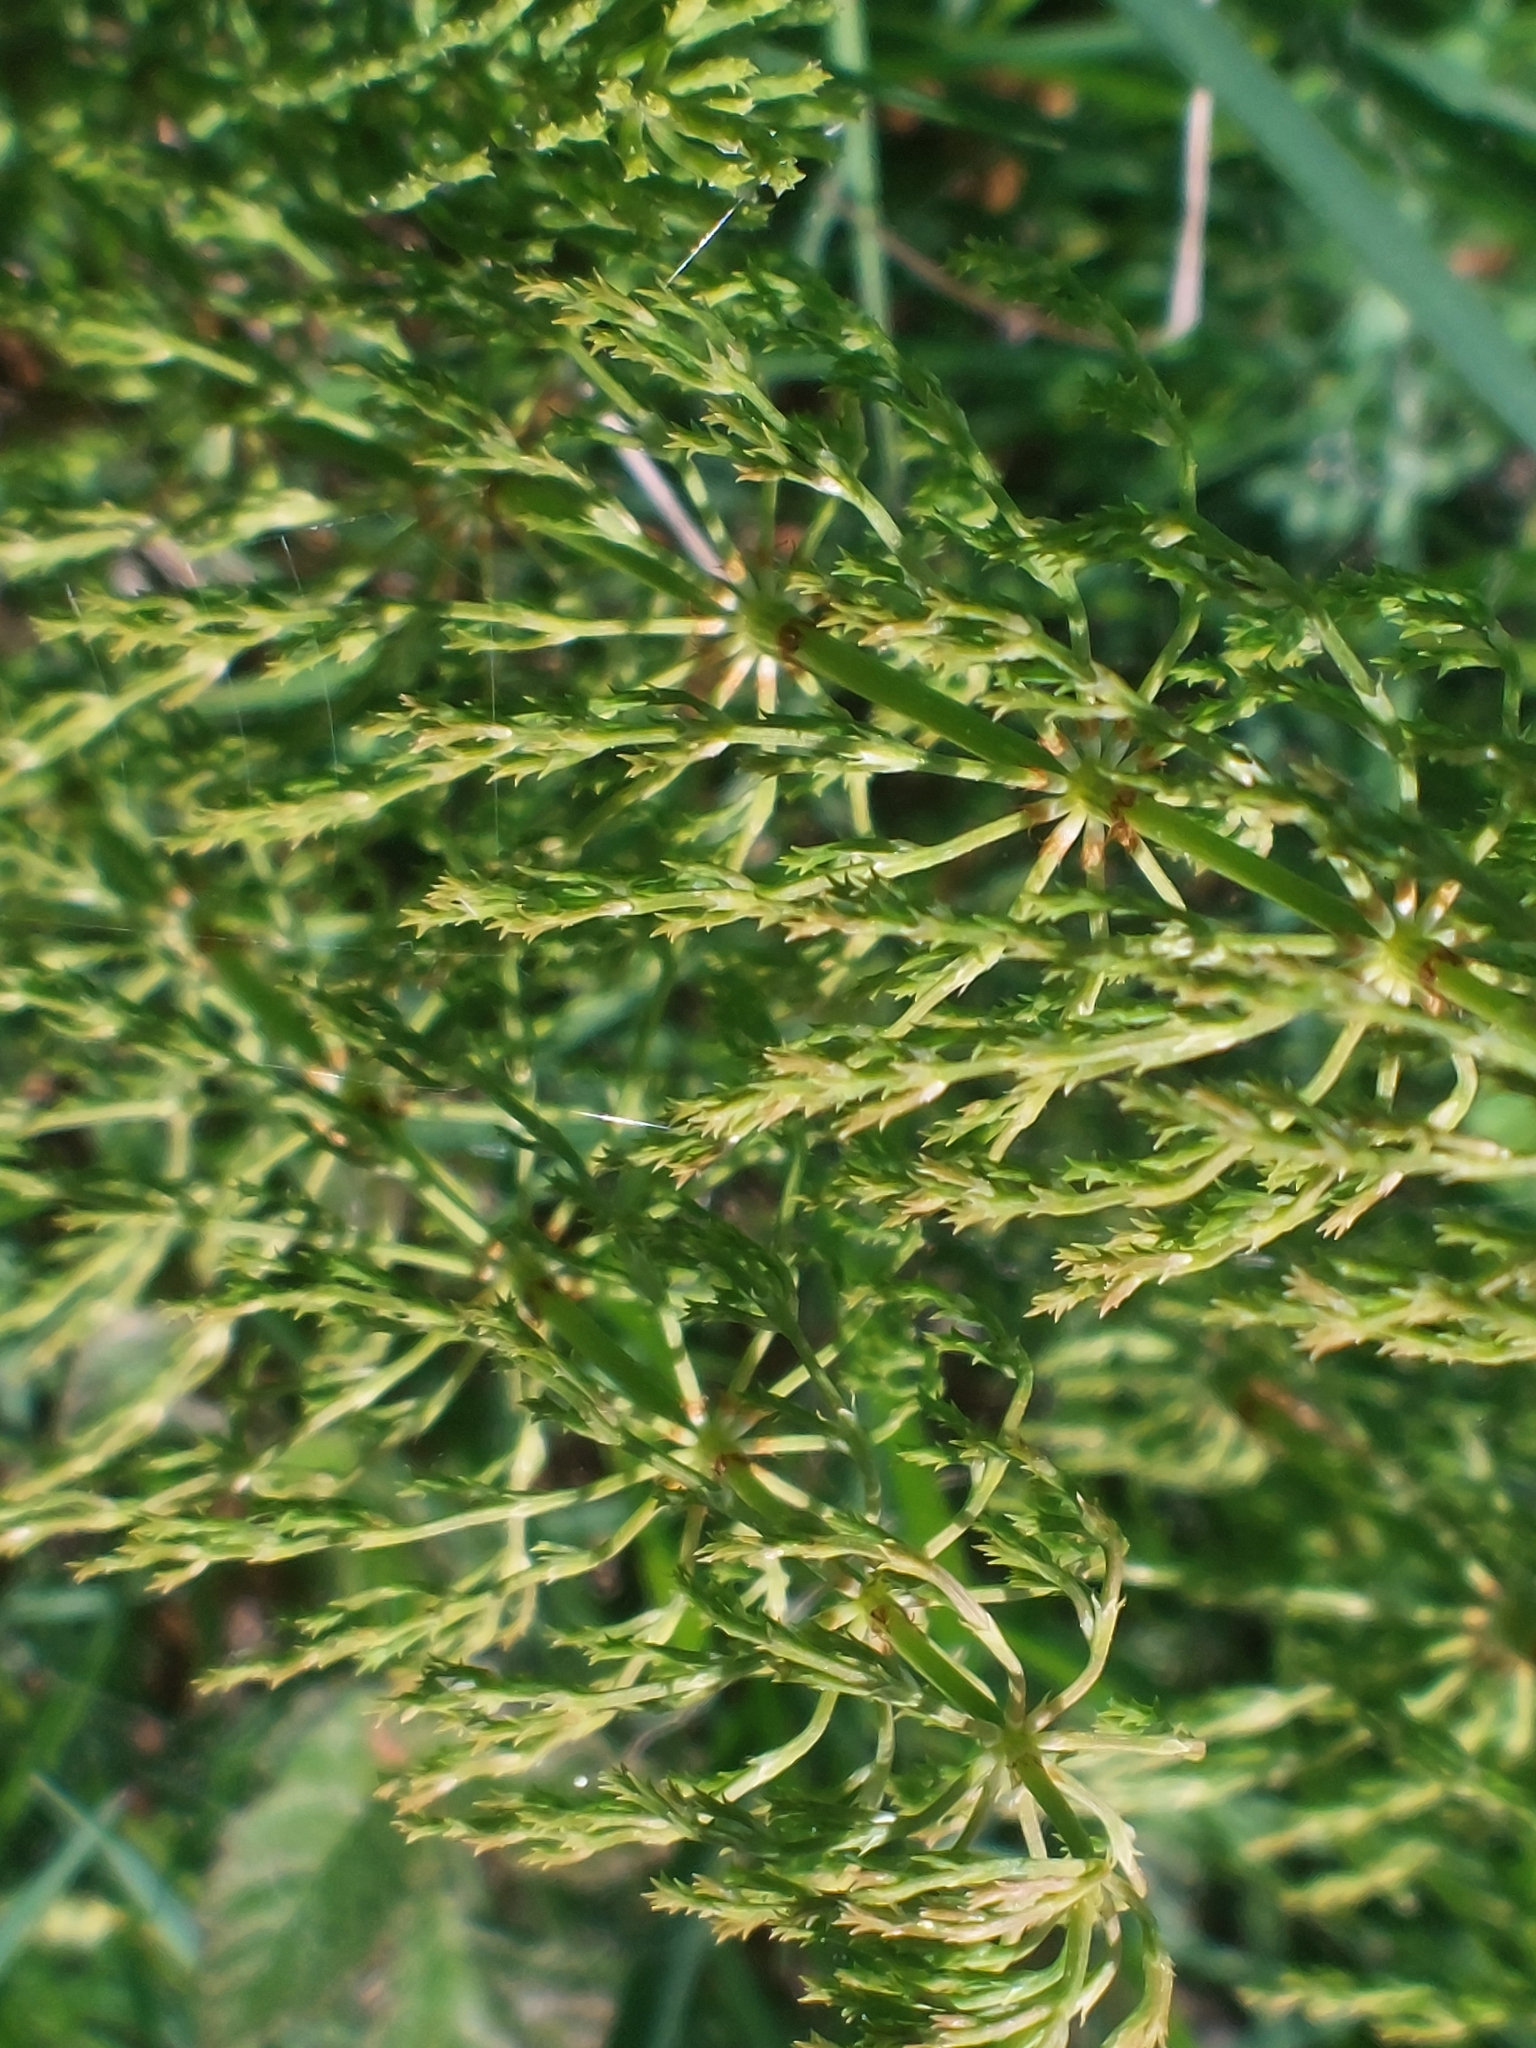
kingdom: Plantae
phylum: Tracheophyta
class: Polypodiopsida
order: Equisetales
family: Equisetaceae
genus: Equisetum
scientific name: Equisetum sylvaticum
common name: Wood horsetail
